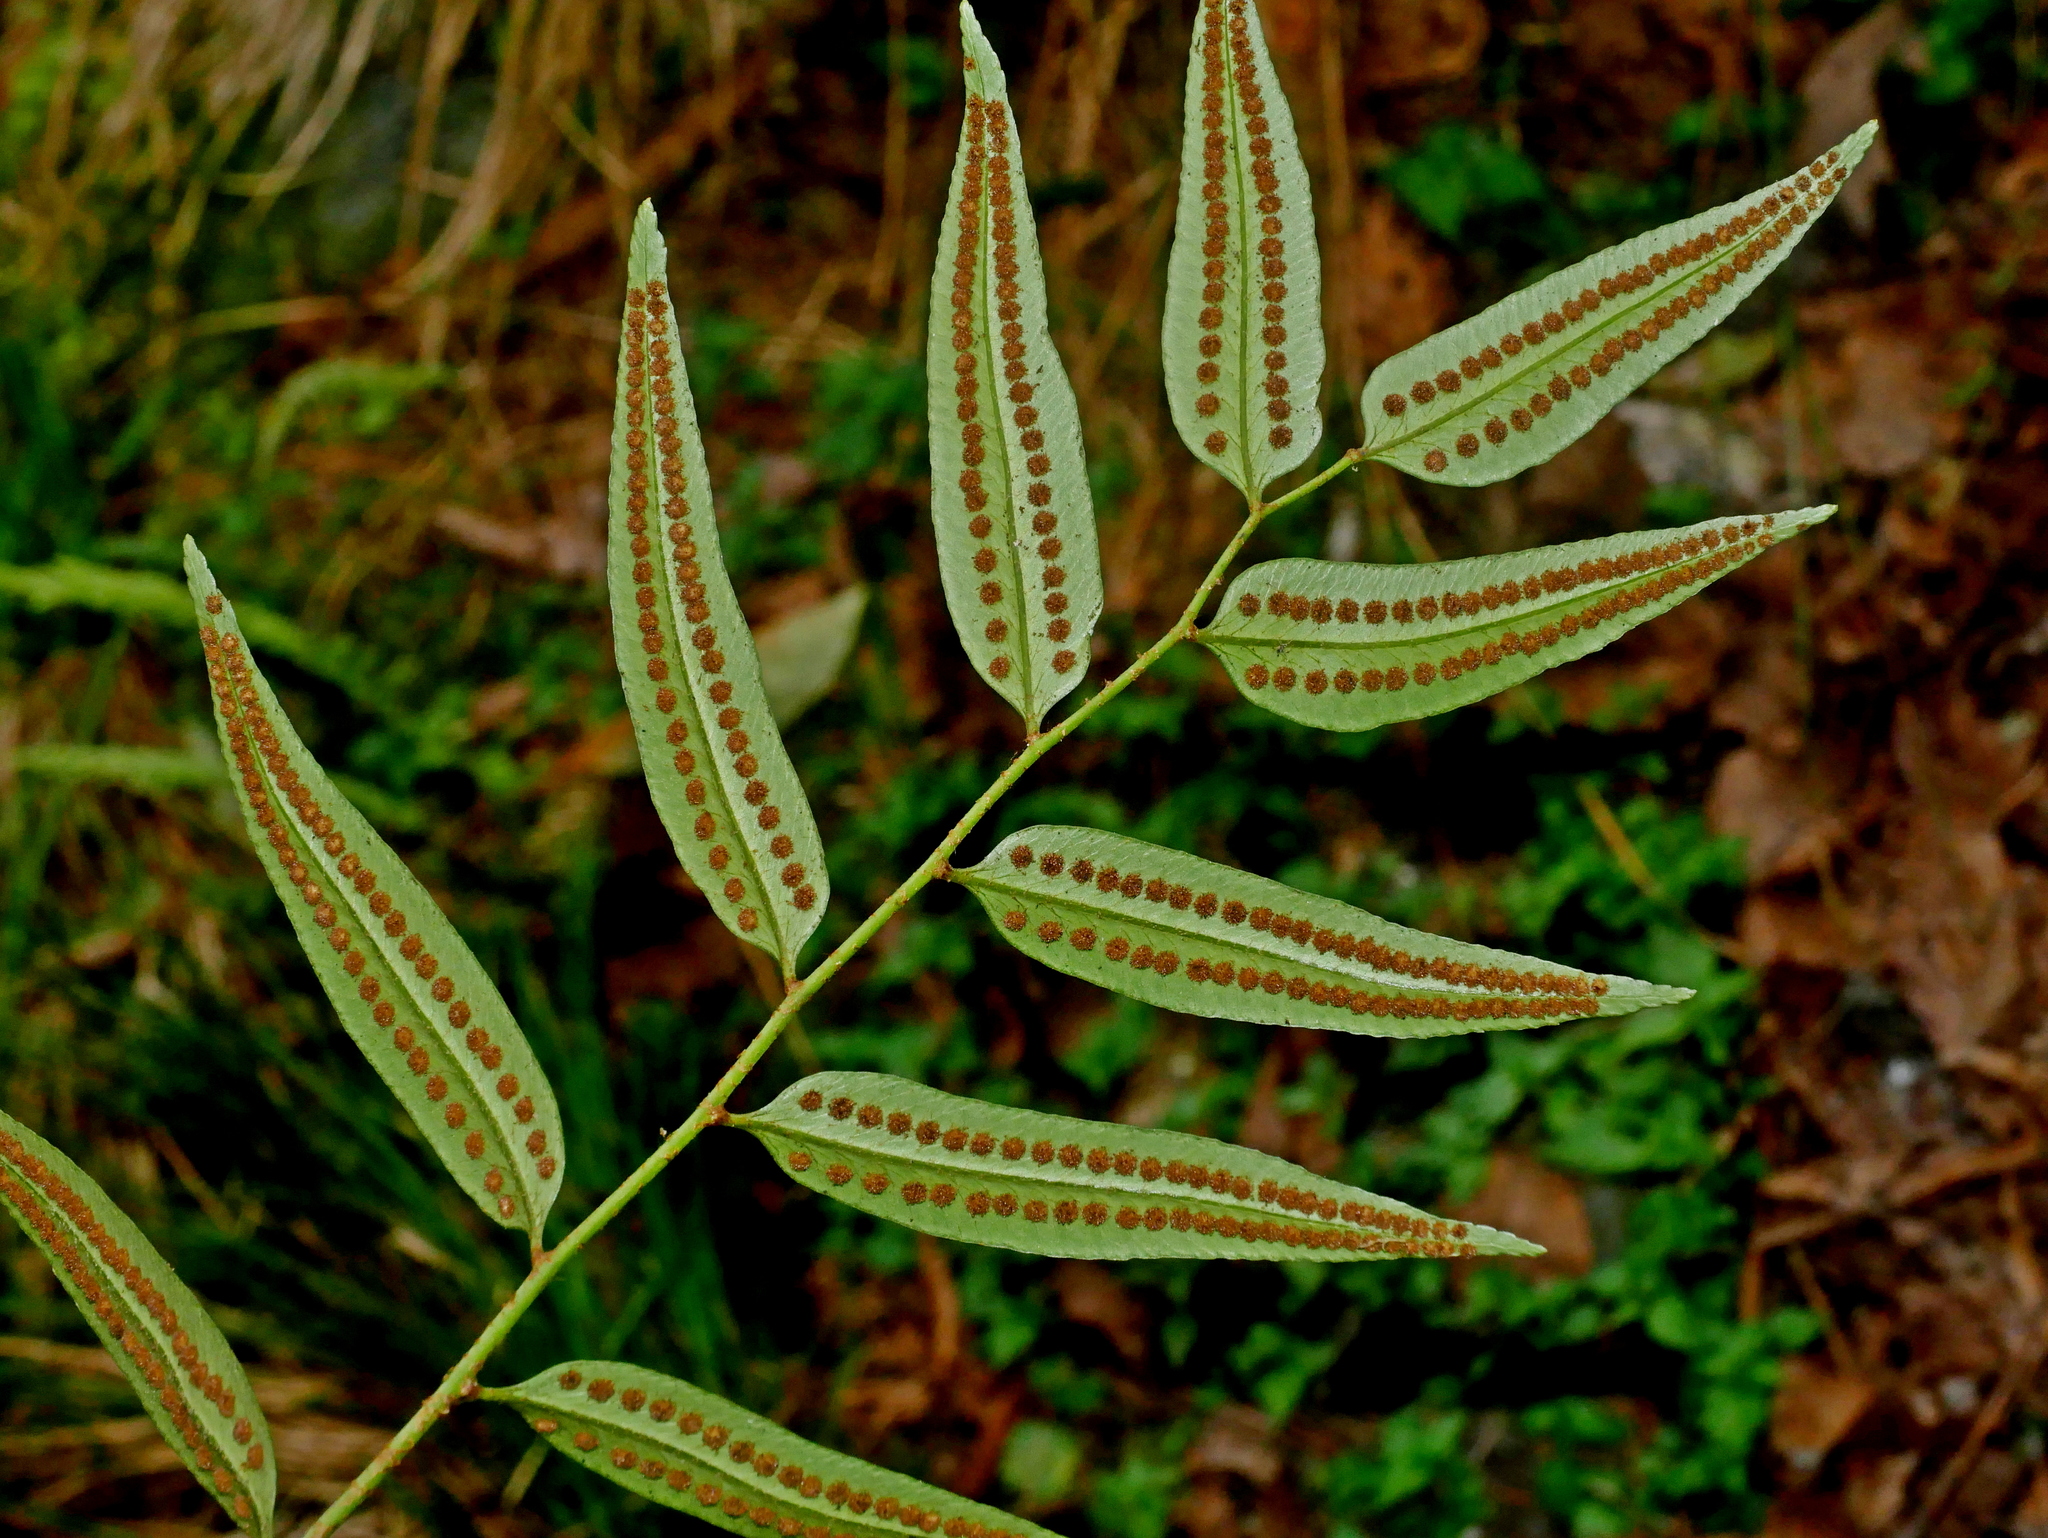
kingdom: Plantae
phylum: Tracheophyta
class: Polypodiopsida
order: Polypodiales
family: Dryopteridaceae
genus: Polystichum
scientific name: Polystichum fraxinellum
